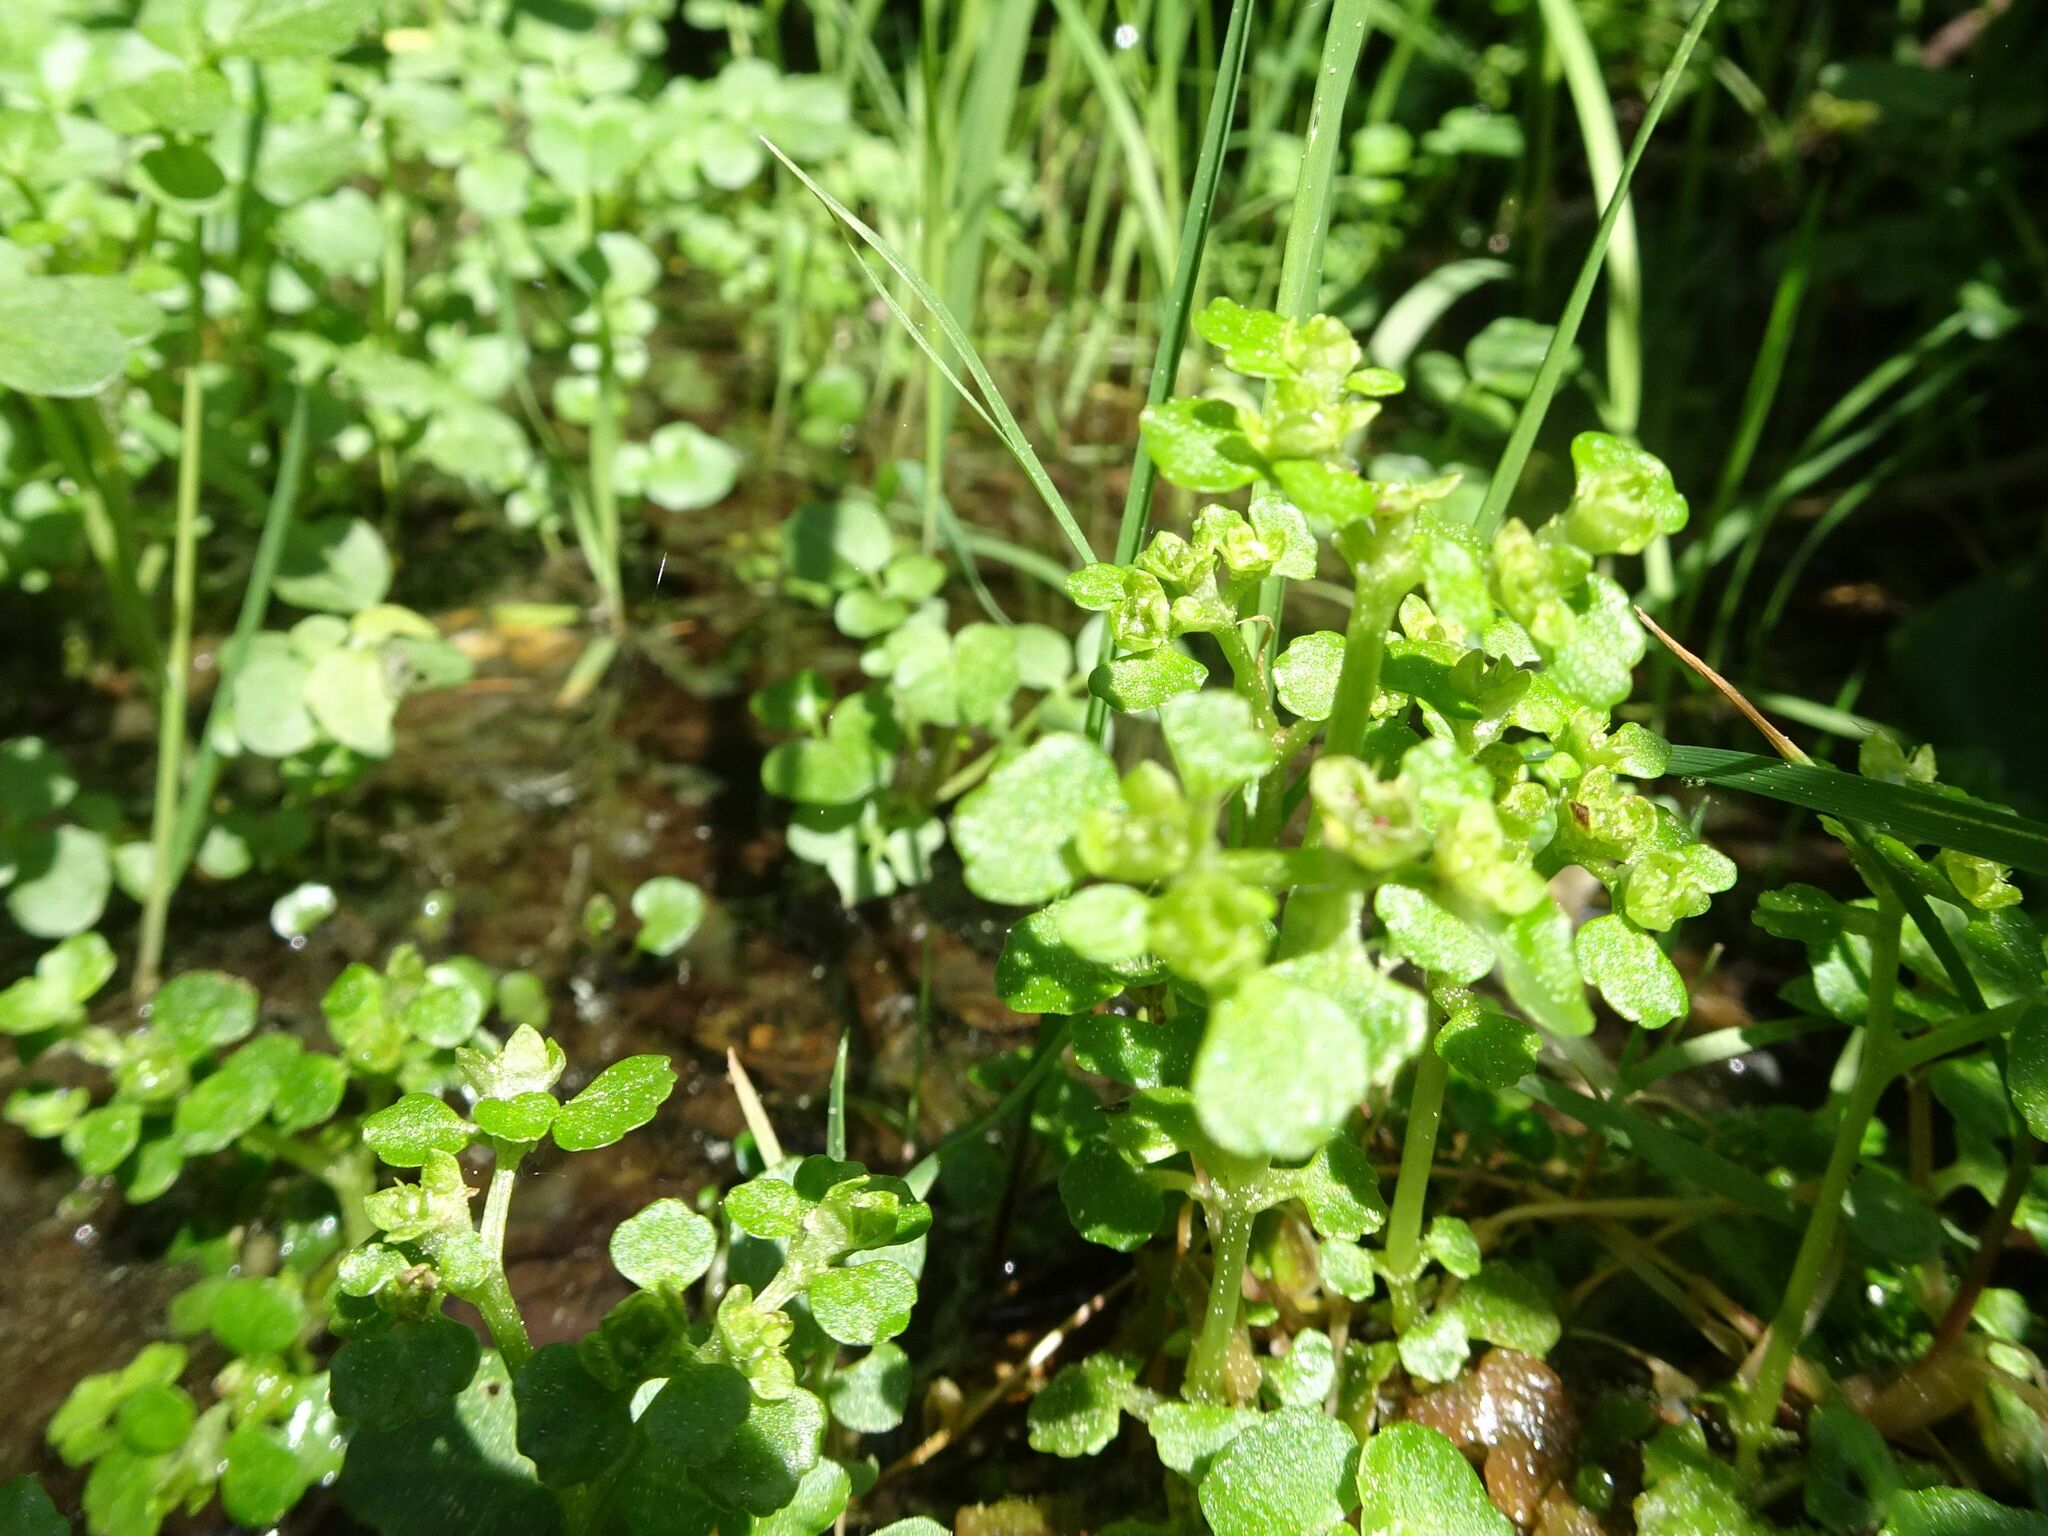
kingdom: Plantae
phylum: Tracheophyta
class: Magnoliopsida
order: Saxifragales
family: Saxifragaceae
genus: Chrysosplenium
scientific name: Chrysosplenium oppositifolium
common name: Opposite-leaved golden-saxifrage
